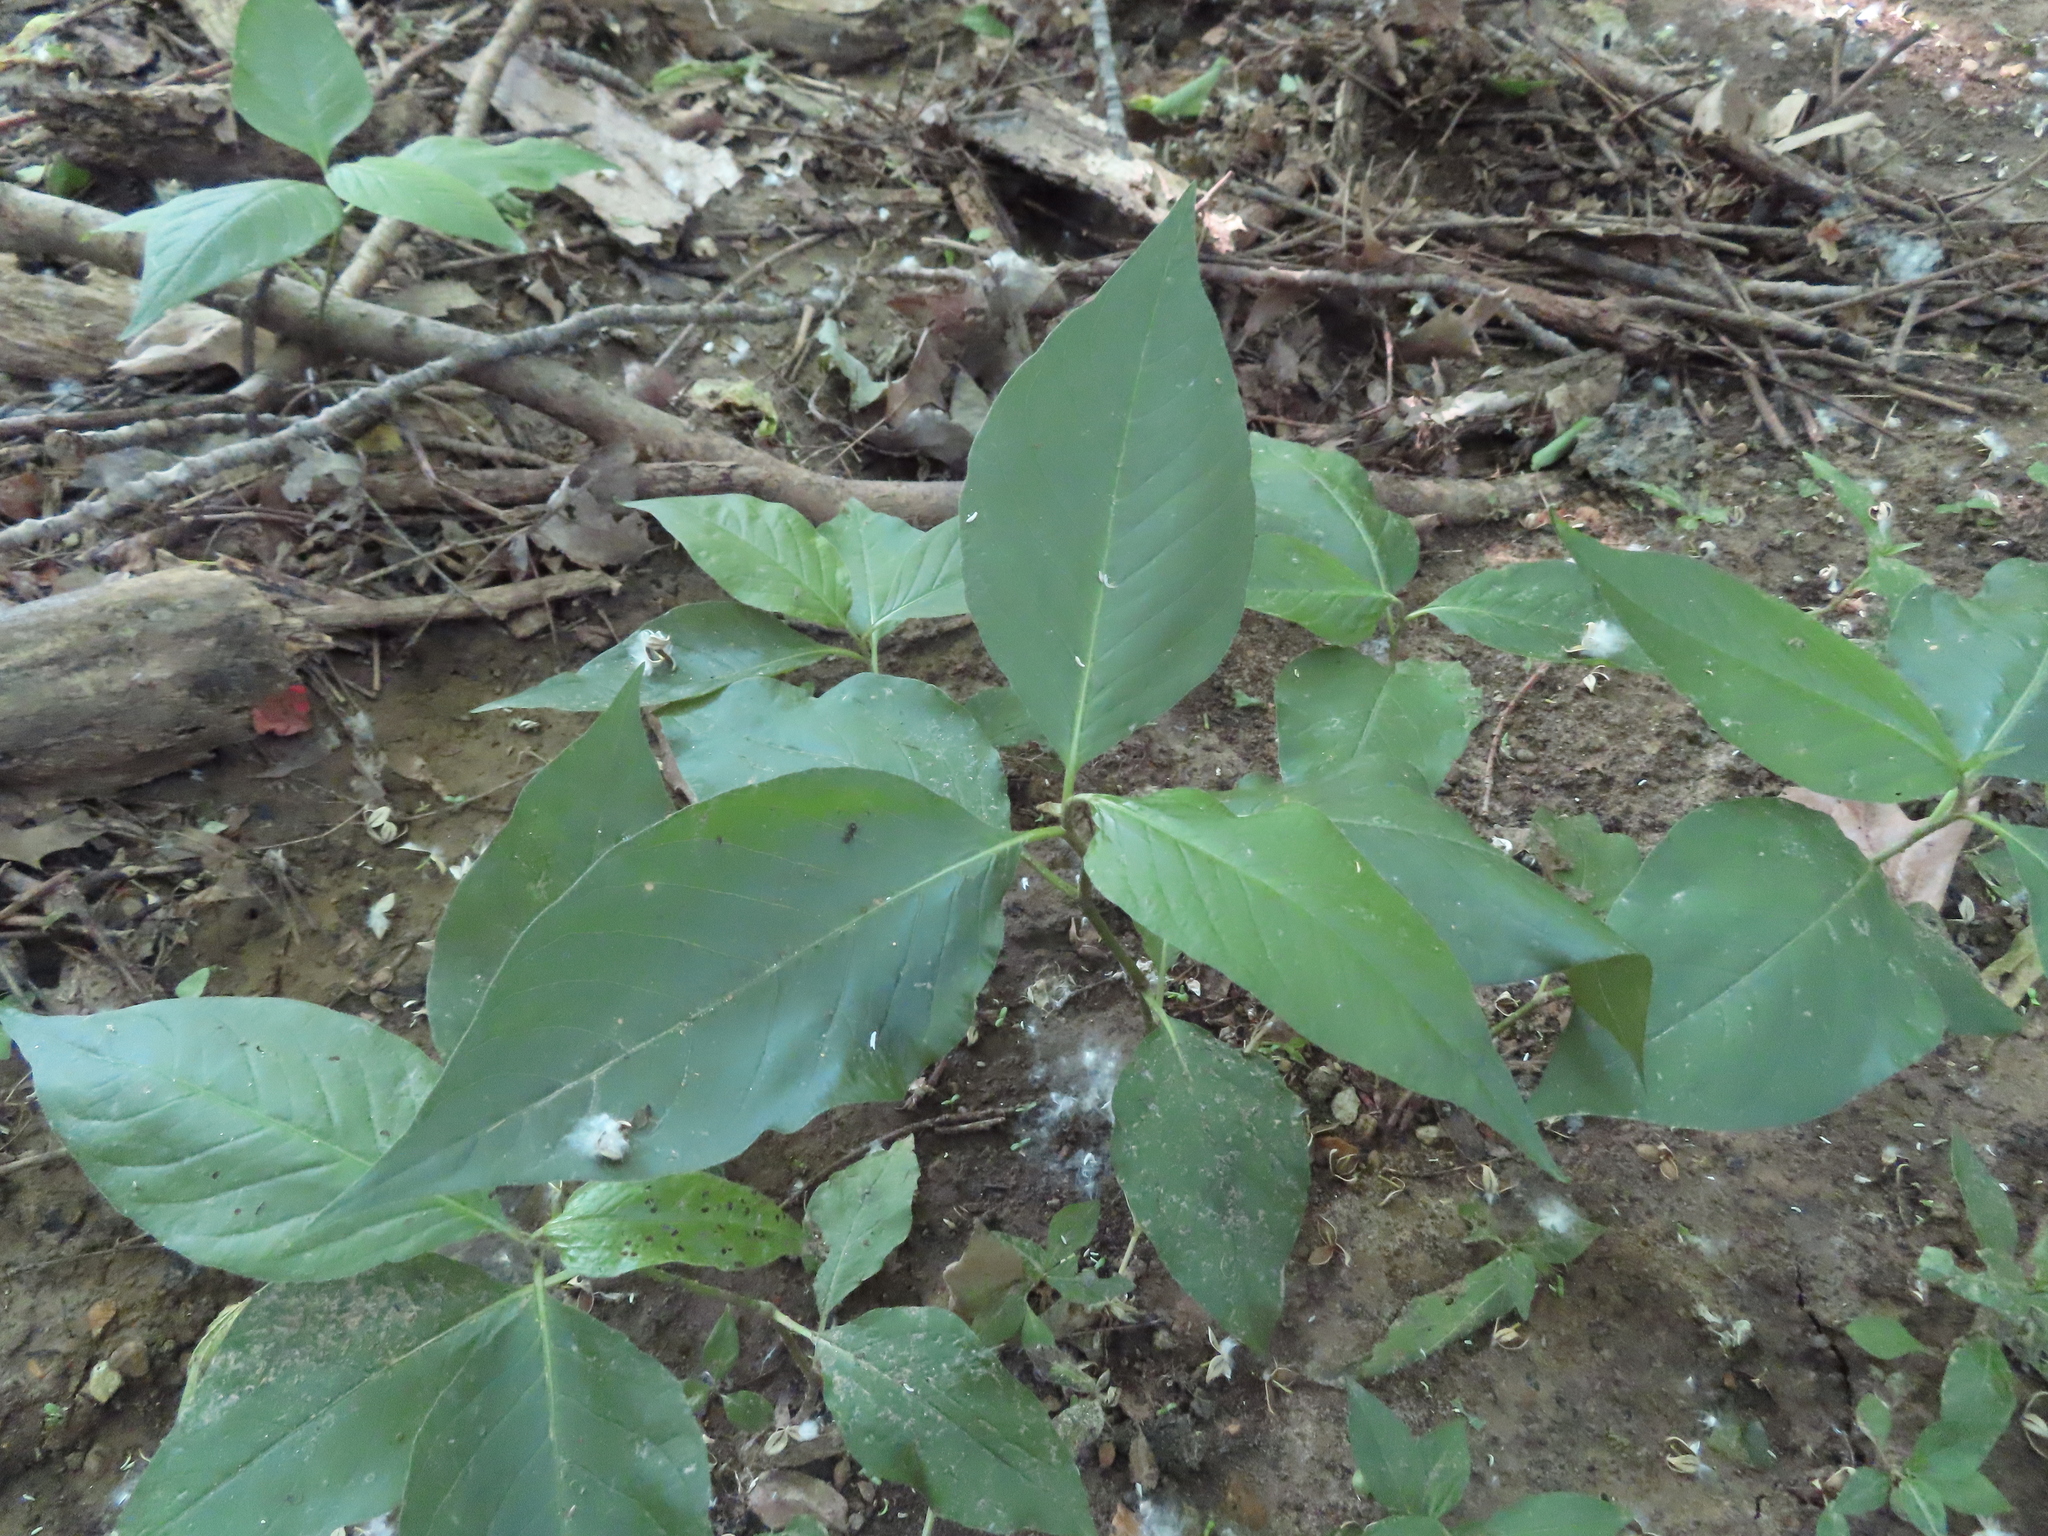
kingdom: Plantae
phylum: Tracheophyta
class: Magnoliopsida
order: Caryophyllales
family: Polygonaceae
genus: Persicaria
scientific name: Persicaria virginiana
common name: Jumpseed
